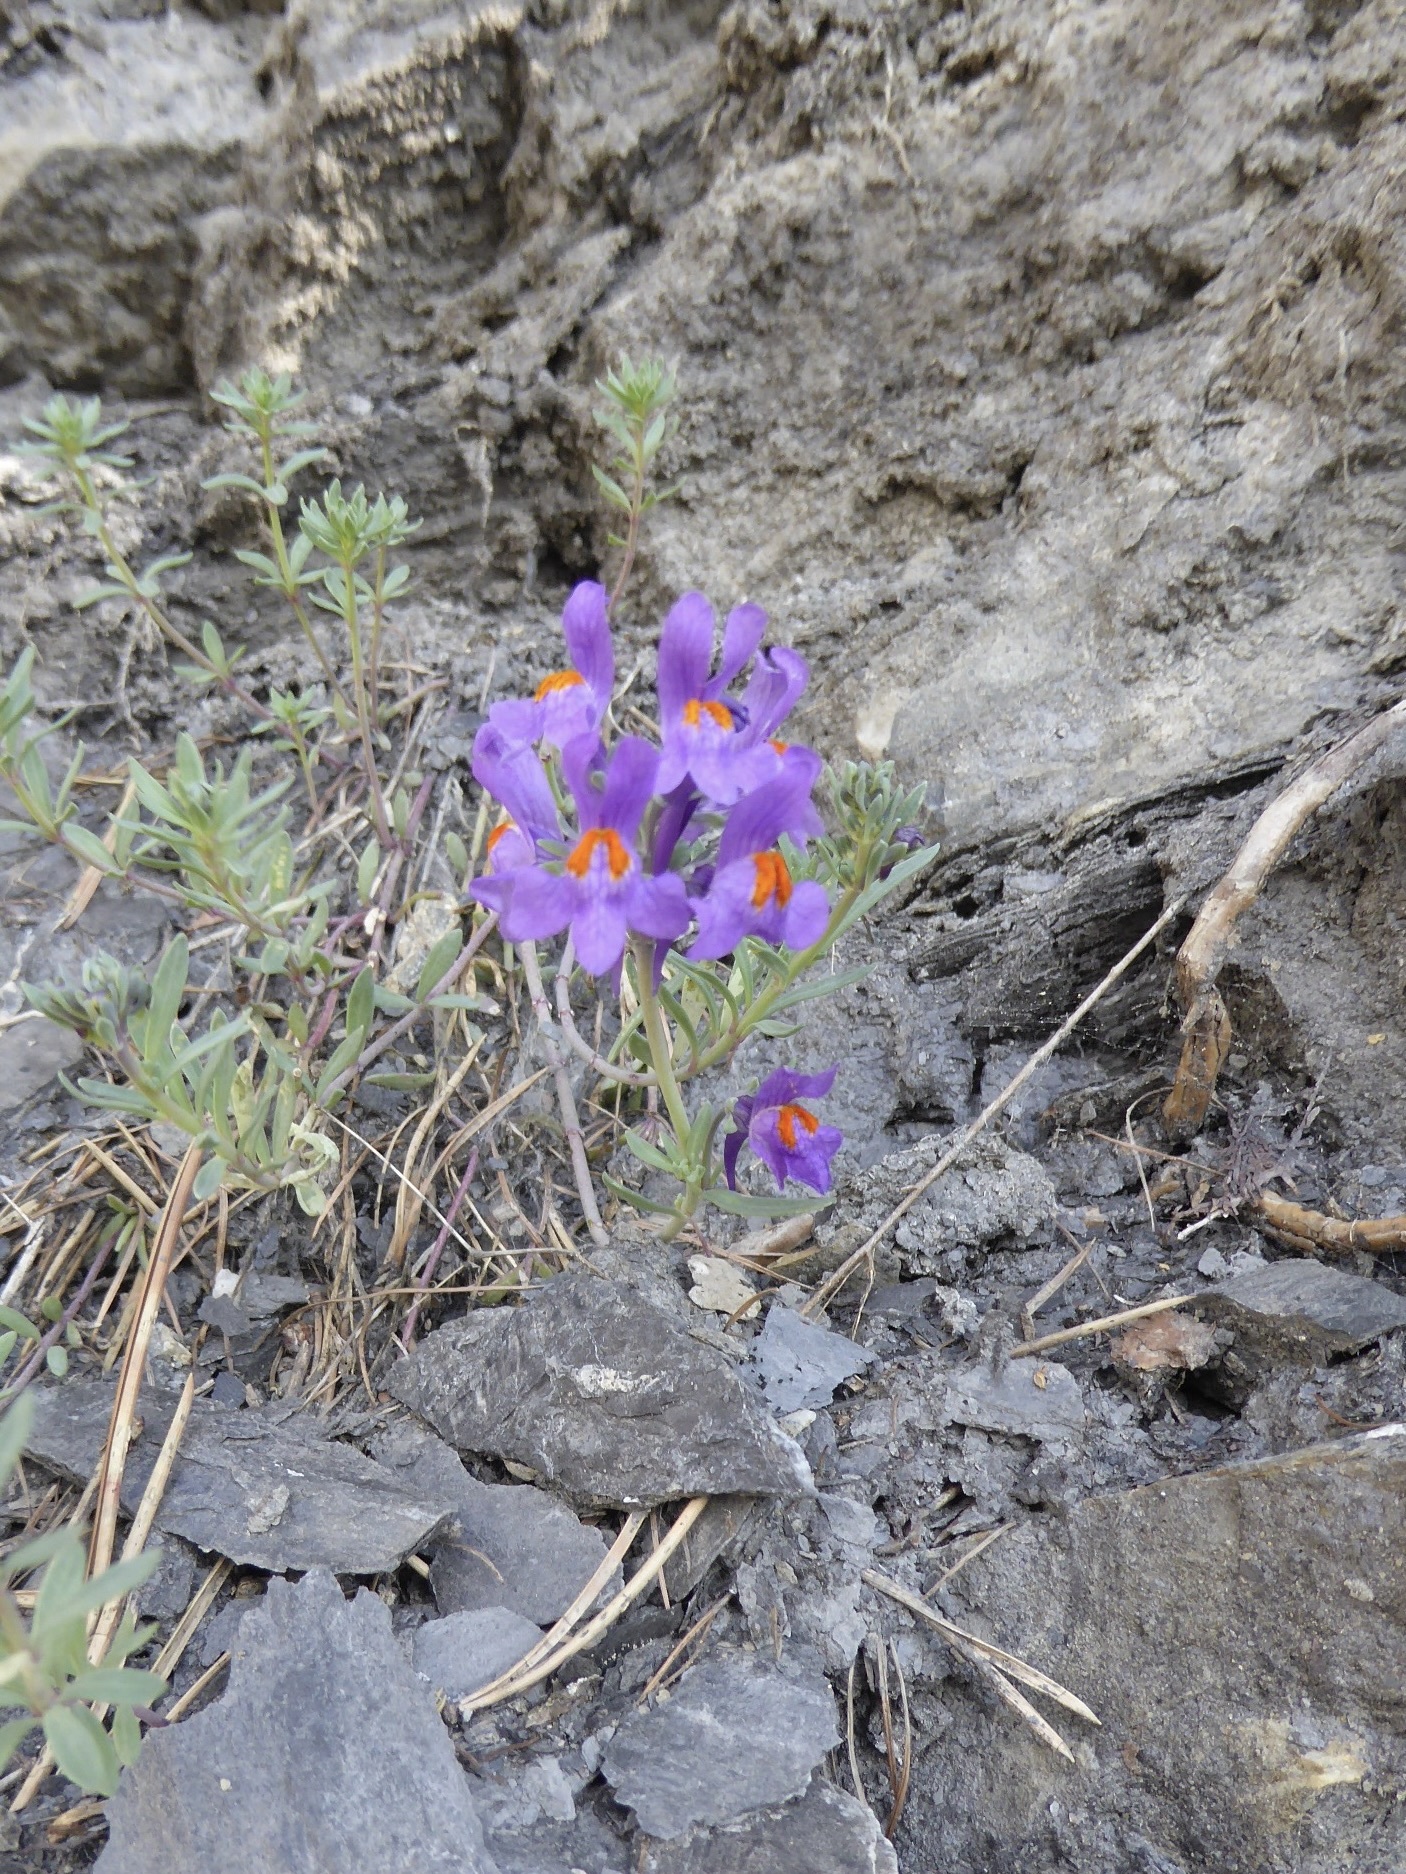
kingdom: Plantae
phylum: Tracheophyta
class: Magnoliopsida
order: Lamiales
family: Plantaginaceae
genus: Linaria
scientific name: Linaria alpina
